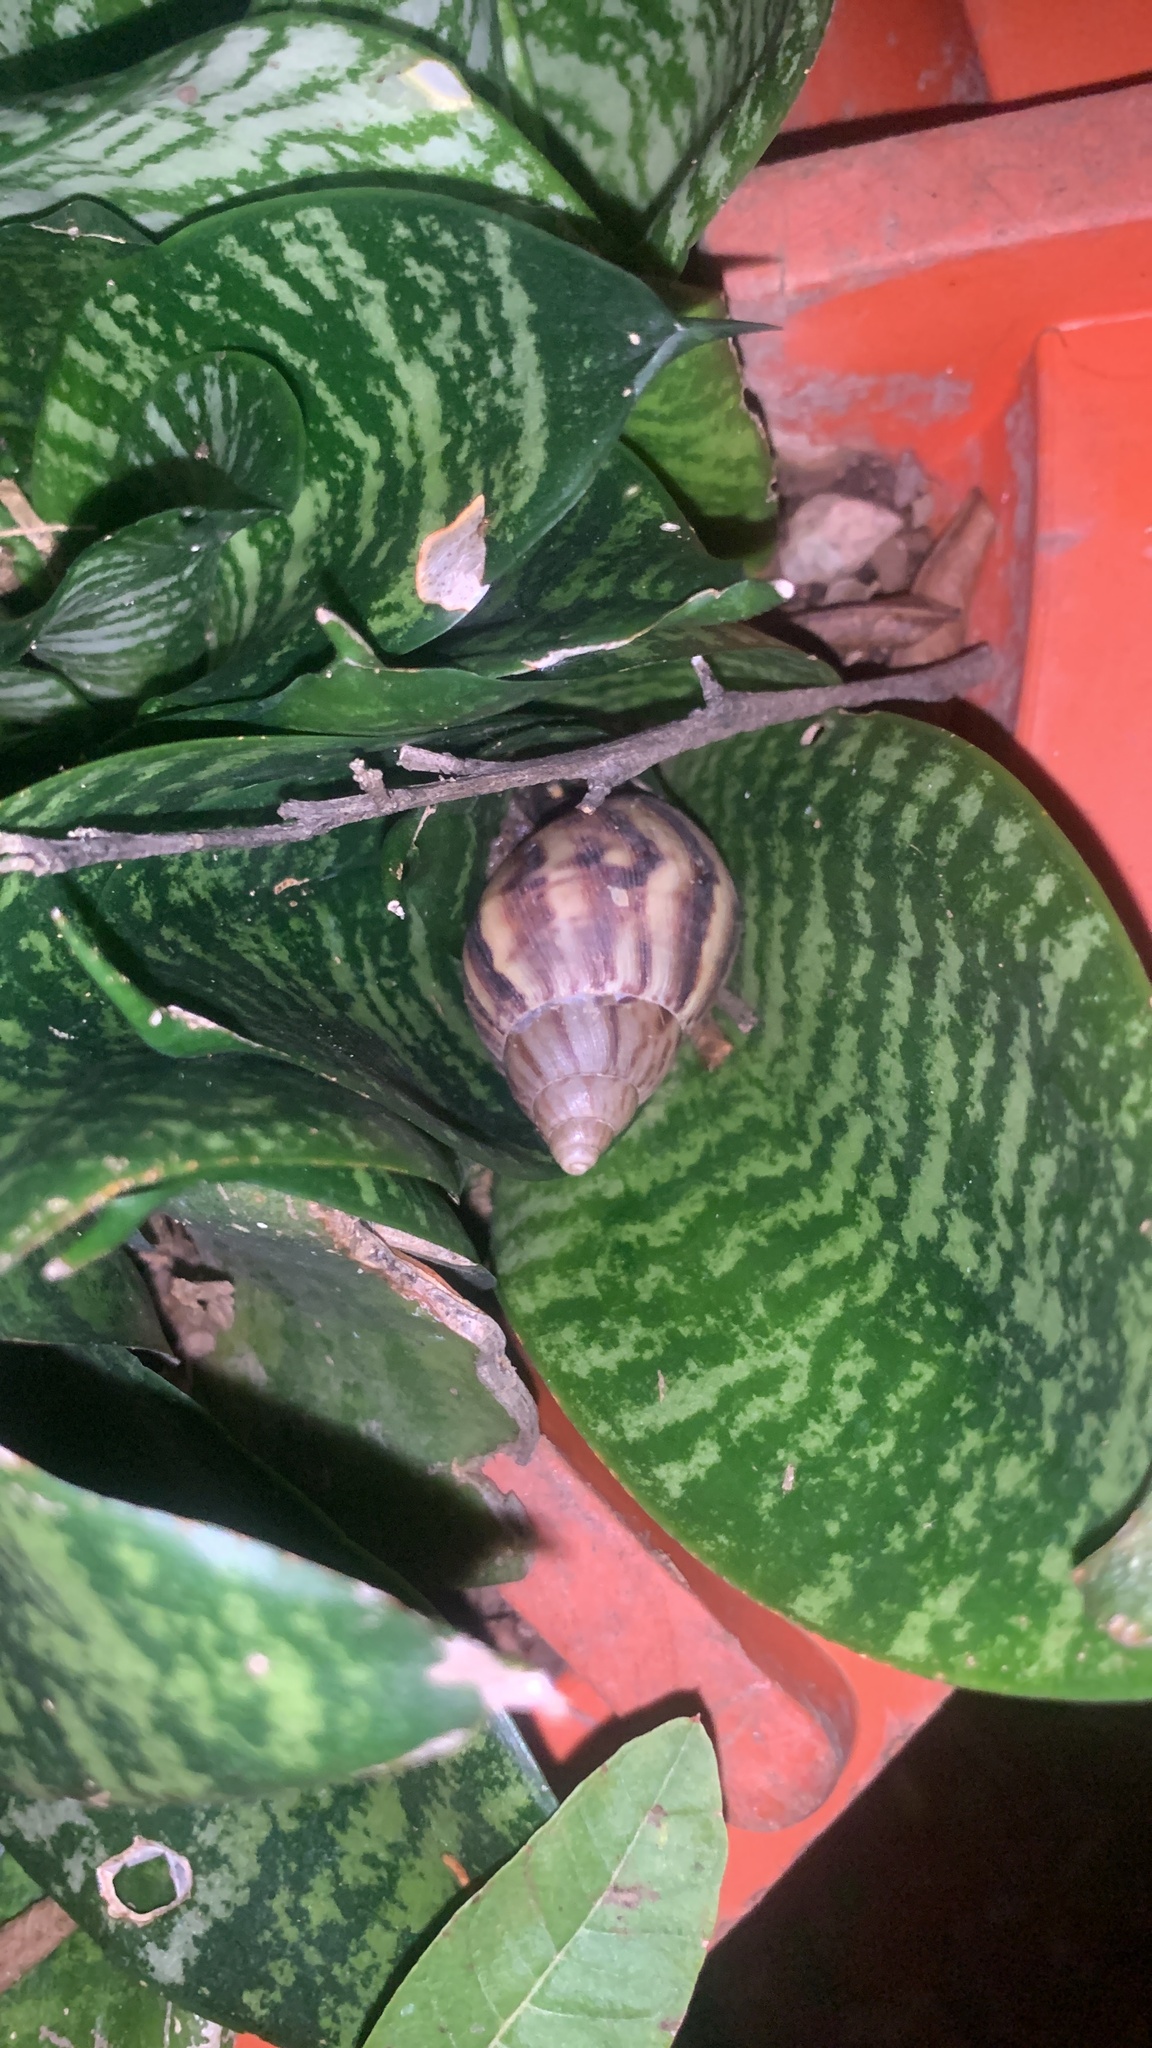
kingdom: Animalia
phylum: Mollusca
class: Gastropoda
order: Stylommatophora
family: Achatinidae
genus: Lissachatina
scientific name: Lissachatina fulica
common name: Giant african snail
